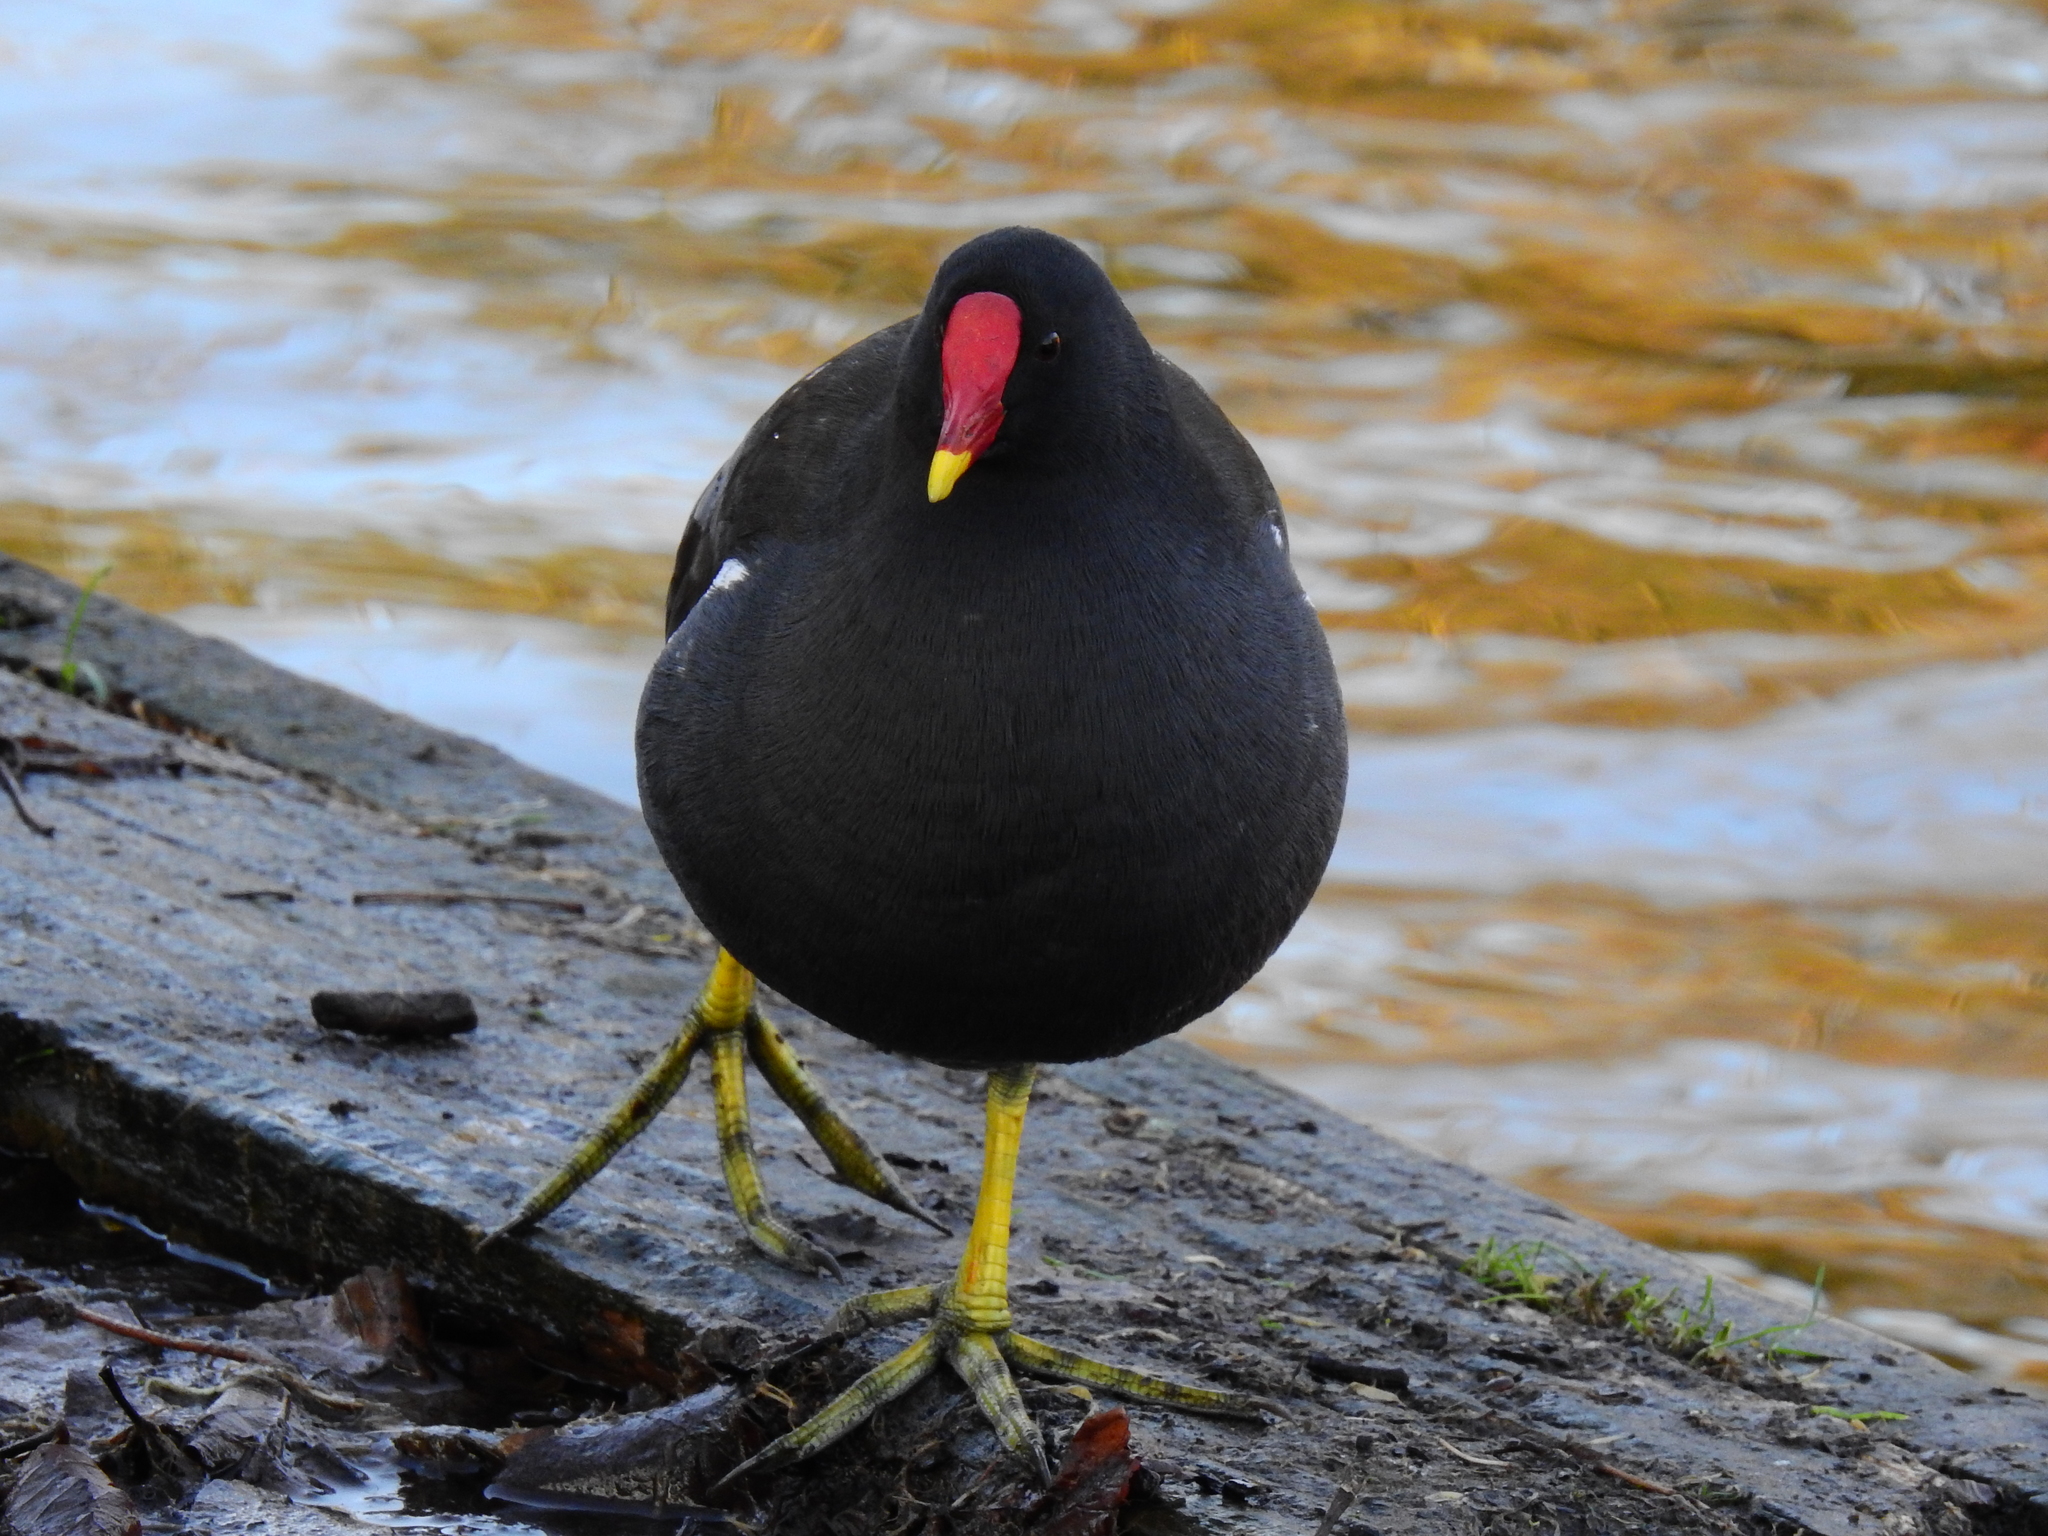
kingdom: Animalia
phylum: Chordata
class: Aves
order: Gruiformes
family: Rallidae
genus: Gallinula
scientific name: Gallinula chloropus
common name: Common moorhen
